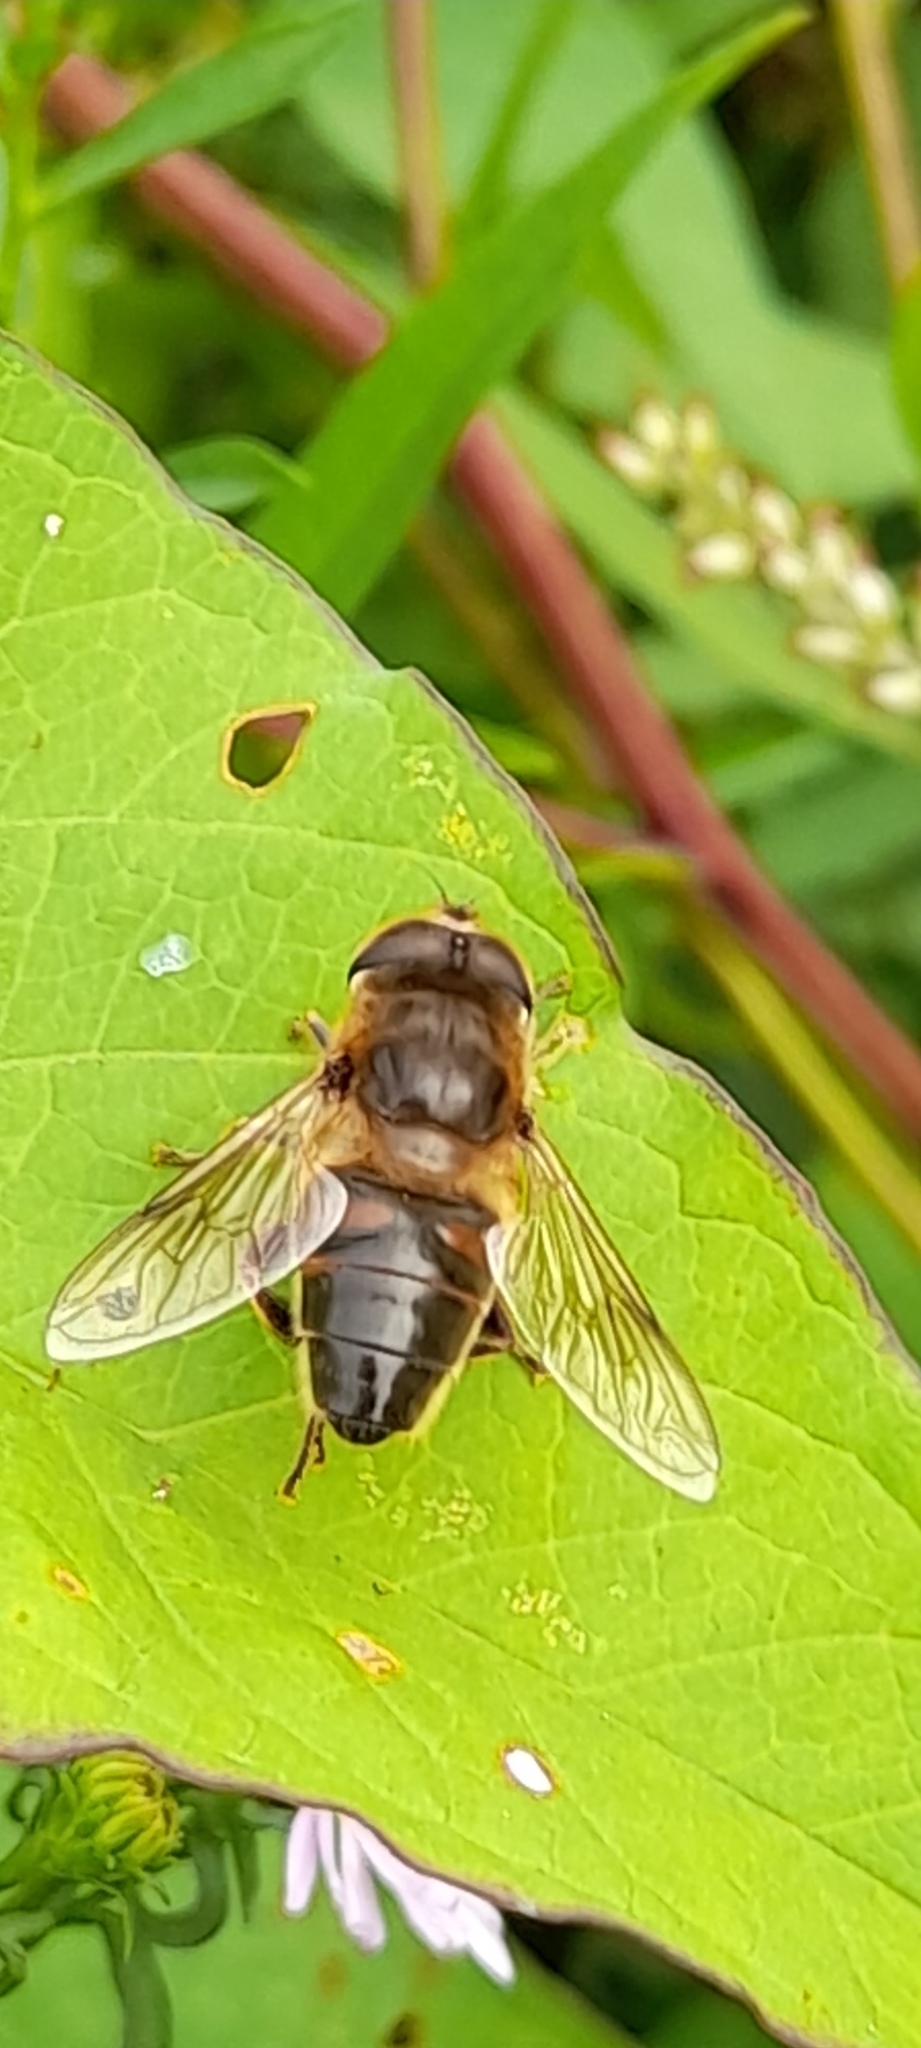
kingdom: Animalia
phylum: Arthropoda
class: Insecta
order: Diptera
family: Syrphidae
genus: Eristalis
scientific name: Eristalis tenax
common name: Drone fly
